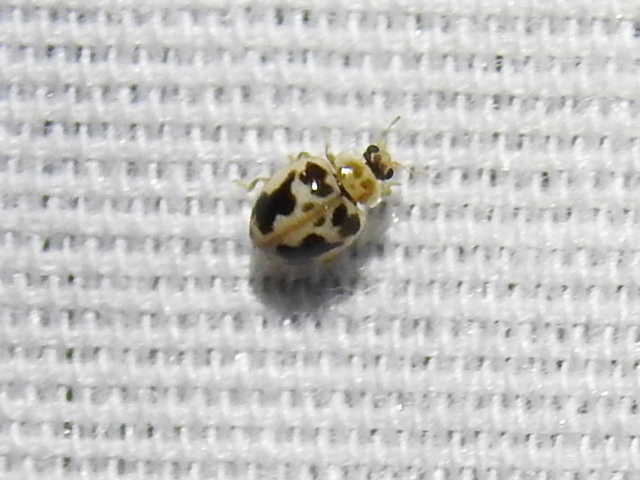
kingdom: Animalia
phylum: Arthropoda
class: Insecta
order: Coleoptera
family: Coccinellidae
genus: Psyllobora
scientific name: Psyllobora renifer
